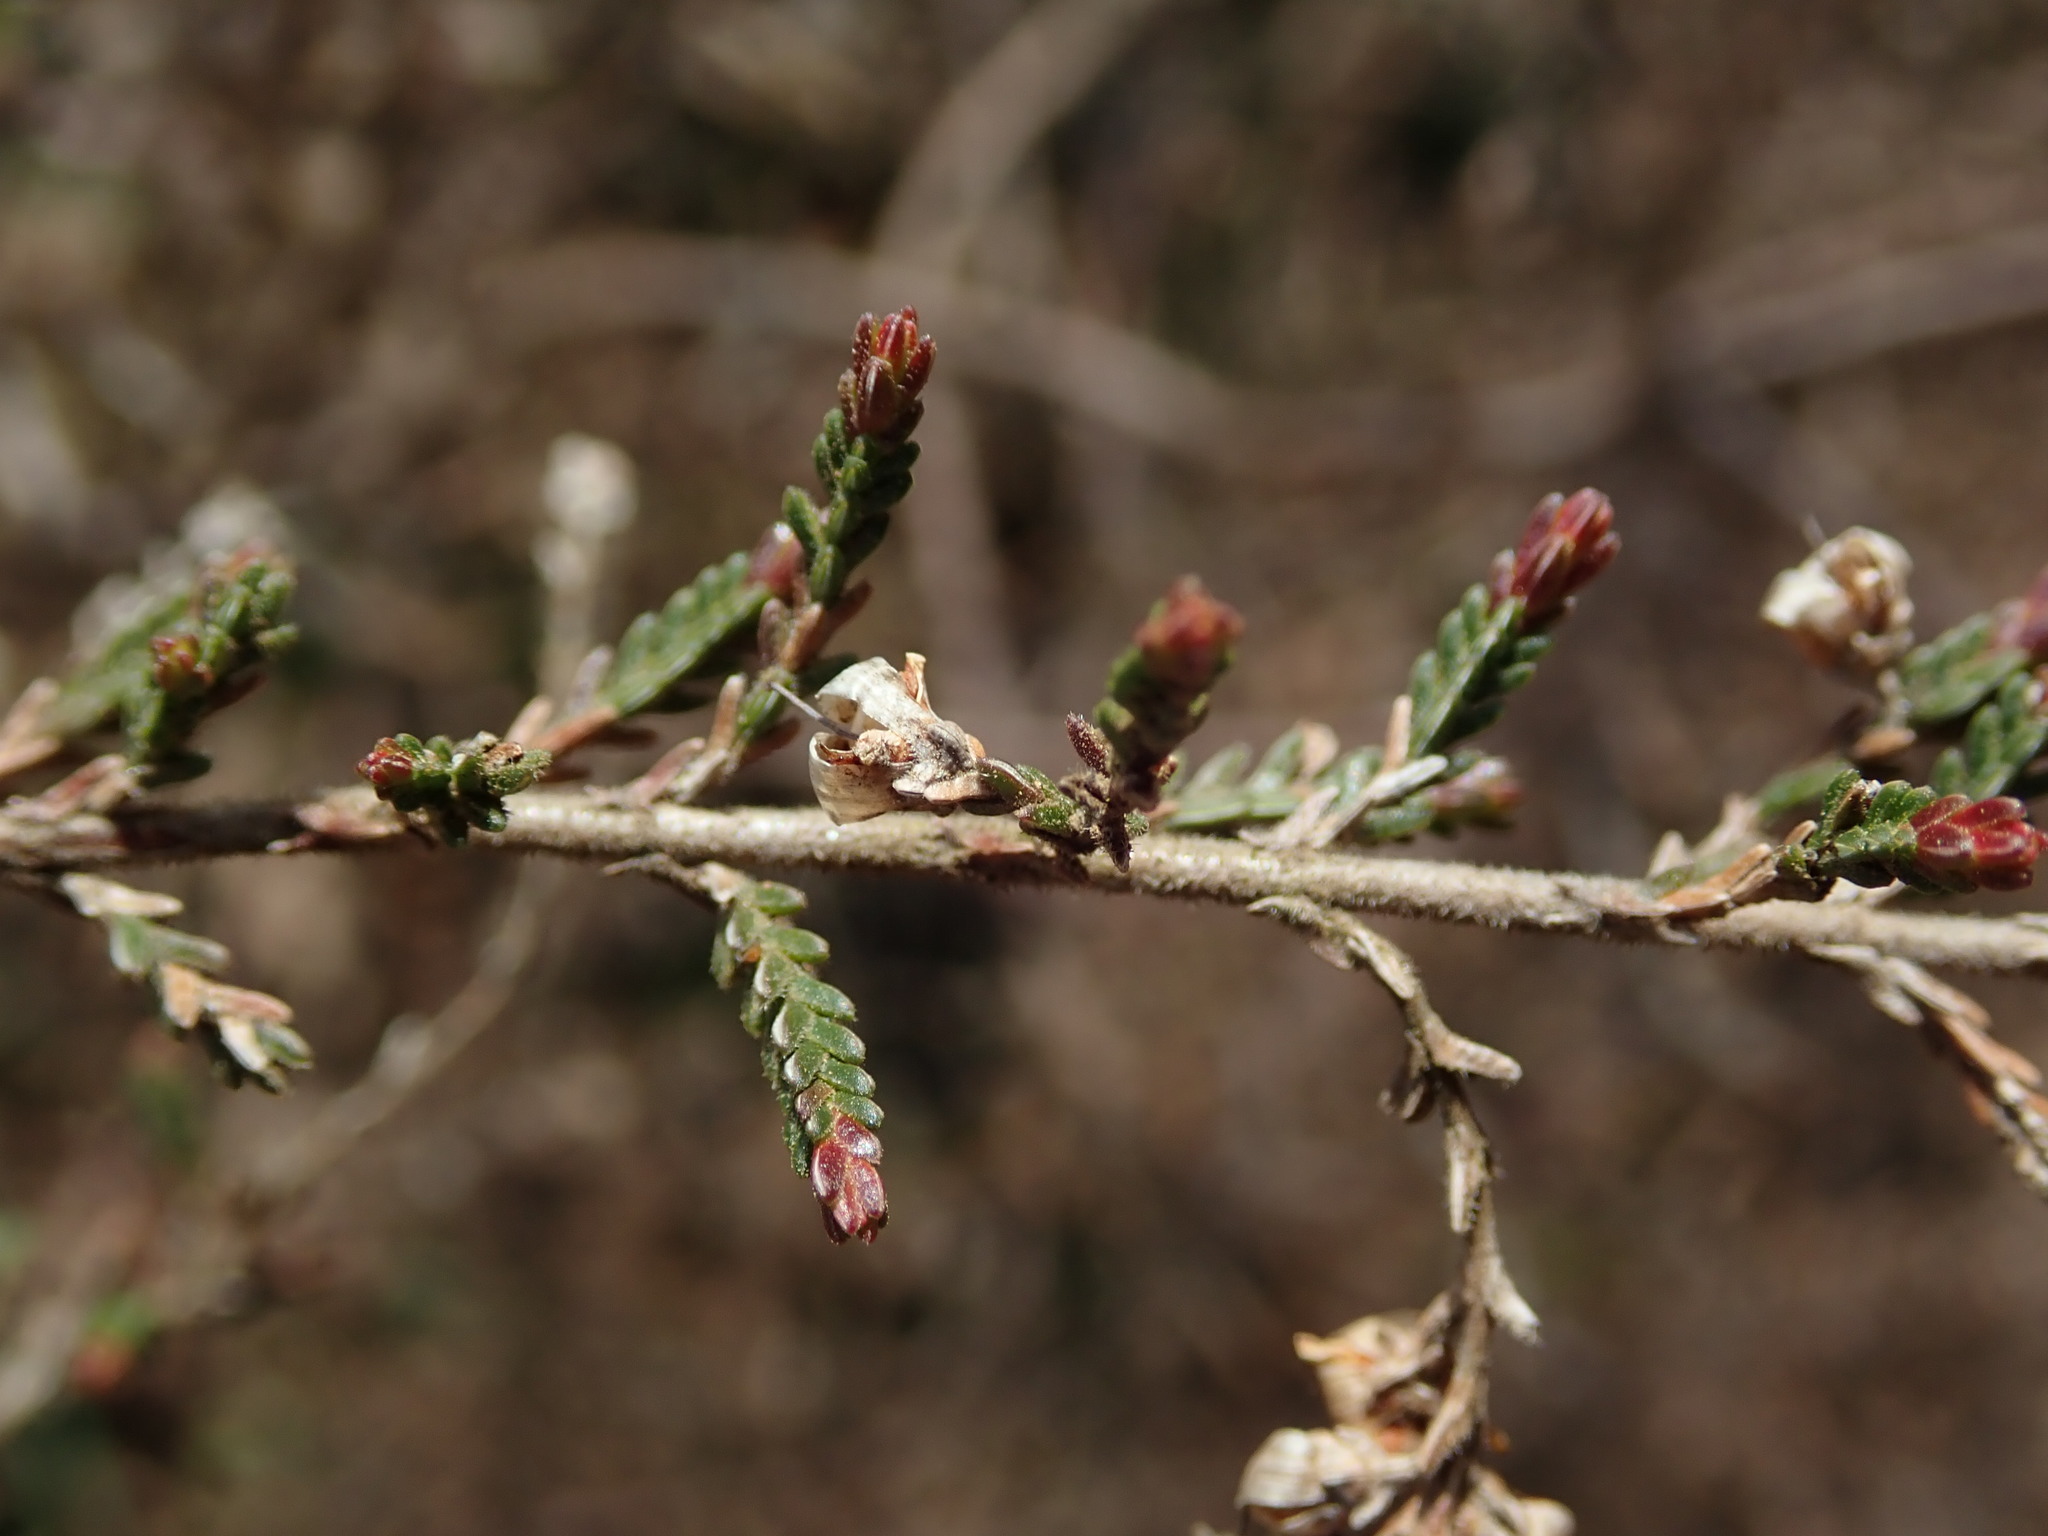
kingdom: Plantae
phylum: Tracheophyta
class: Magnoliopsida
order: Ericales
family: Ericaceae
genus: Calluna
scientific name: Calluna vulgaris
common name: Heather
